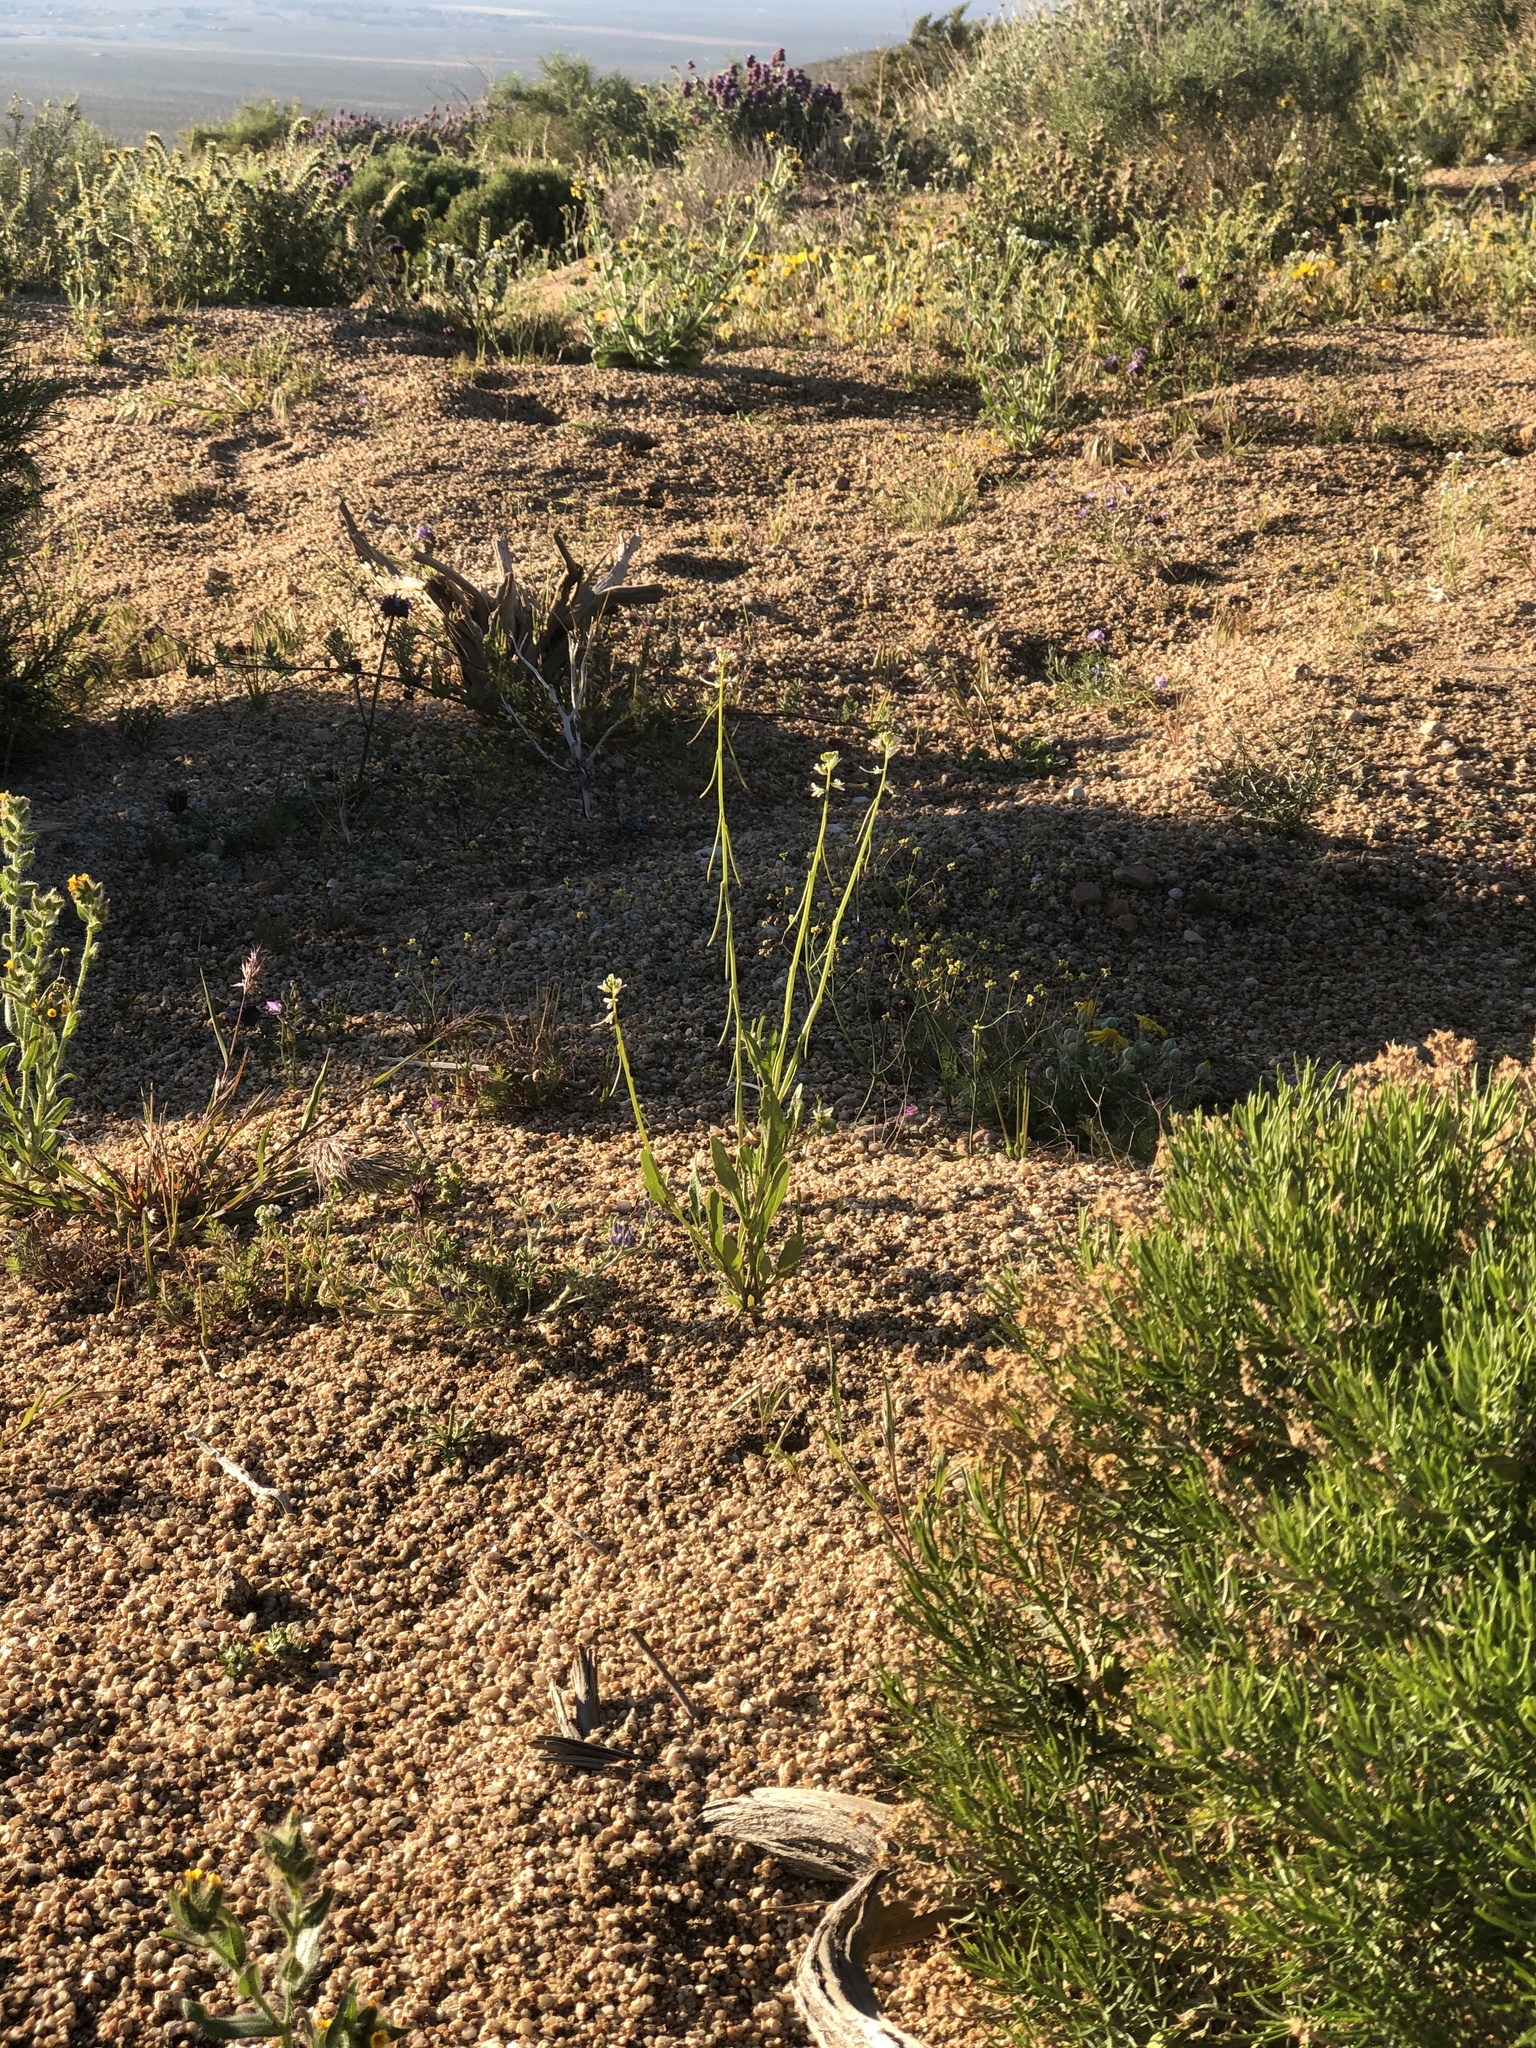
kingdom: Plantae
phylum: Tracheophyta
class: Magnoliopsida
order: Brassicales
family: Brassicaceae
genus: Streptanthus
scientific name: Streptanthus lasiophyllus
